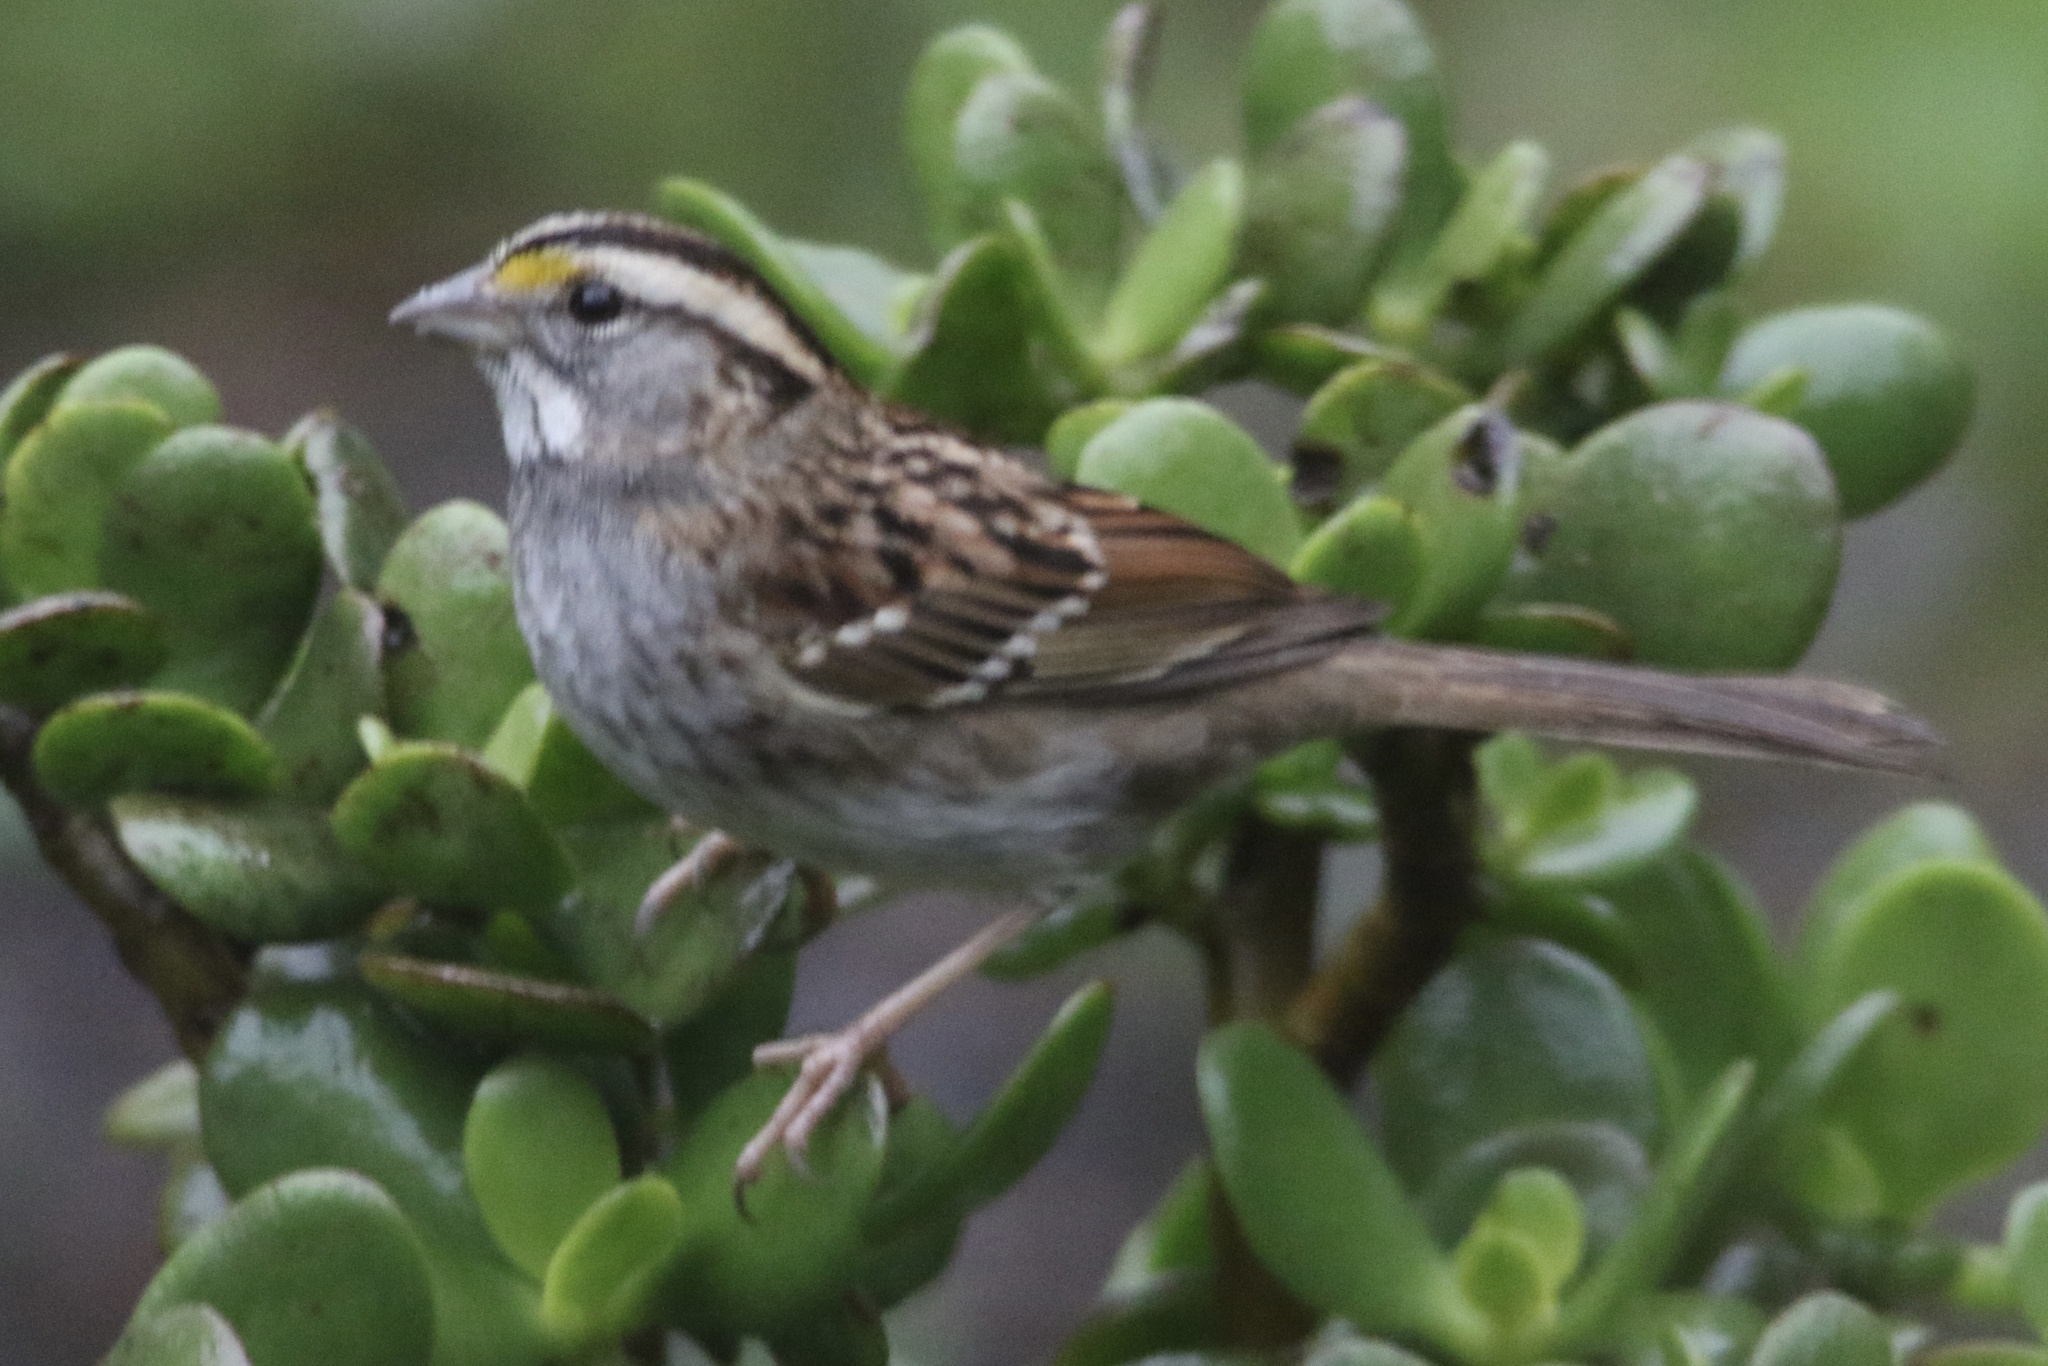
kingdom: Animalia
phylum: Chordata
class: Aves
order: Passeriformes
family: Passerellidae
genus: Zonotrichia
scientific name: Zonotrichia albicollis
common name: White-throated sparrow
